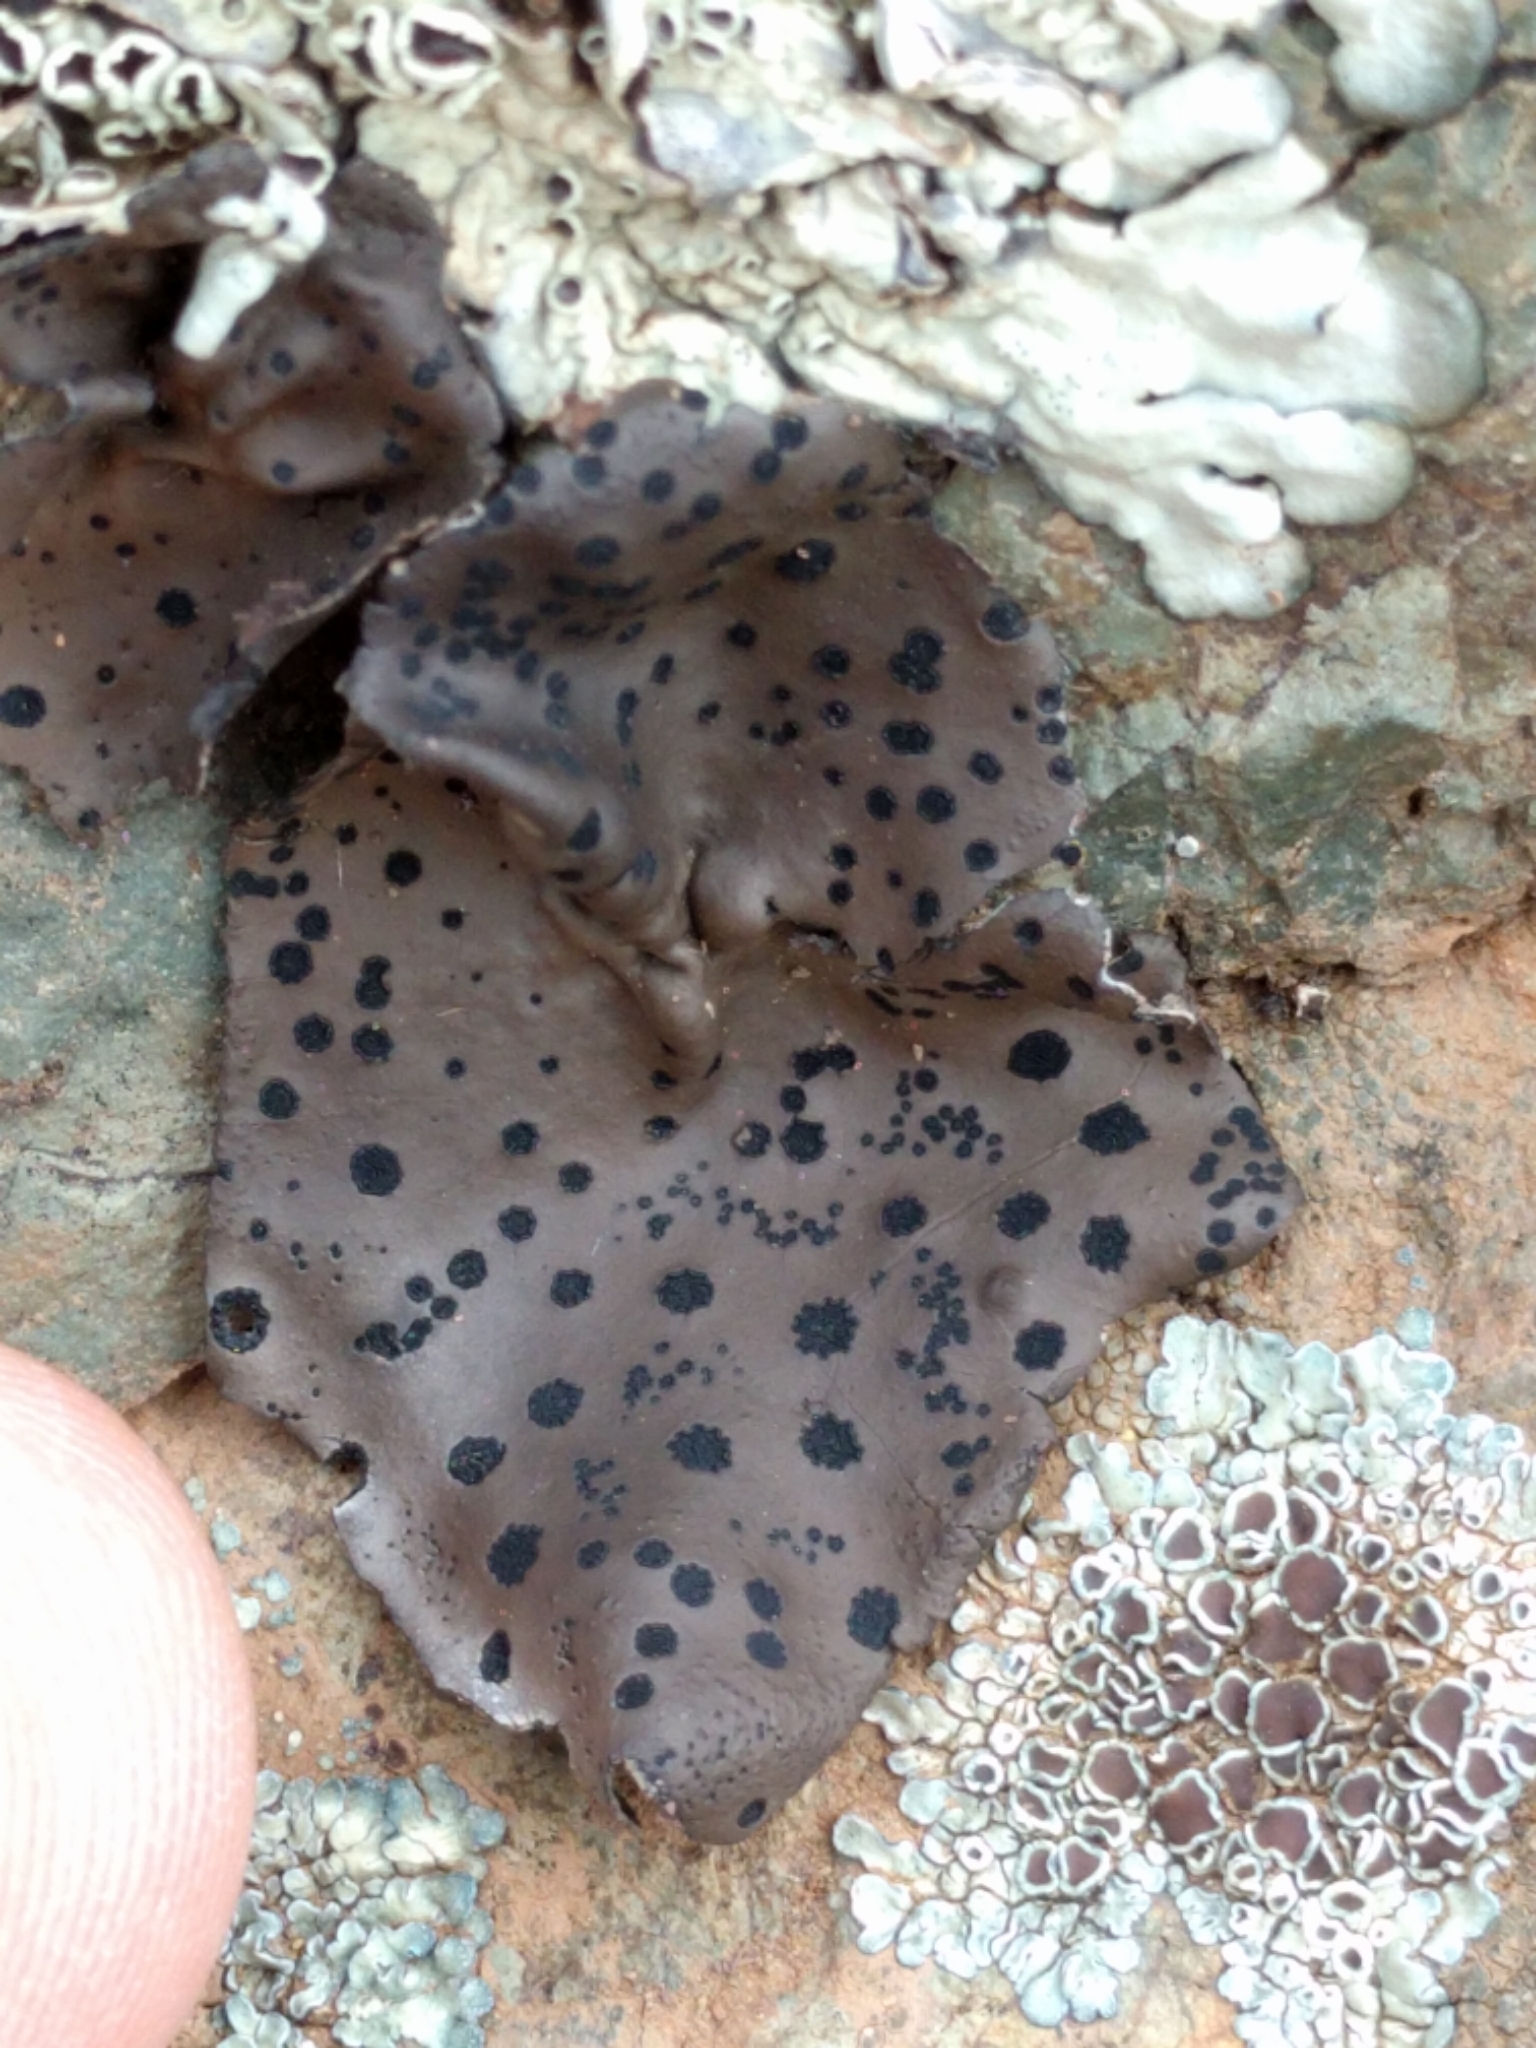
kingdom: Fungi
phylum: Ascomycota
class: Lecanoromycetes
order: Umbilicariales
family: Umbilicariaceae
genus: Umbilicaria
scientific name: Umbilicaria phaea
